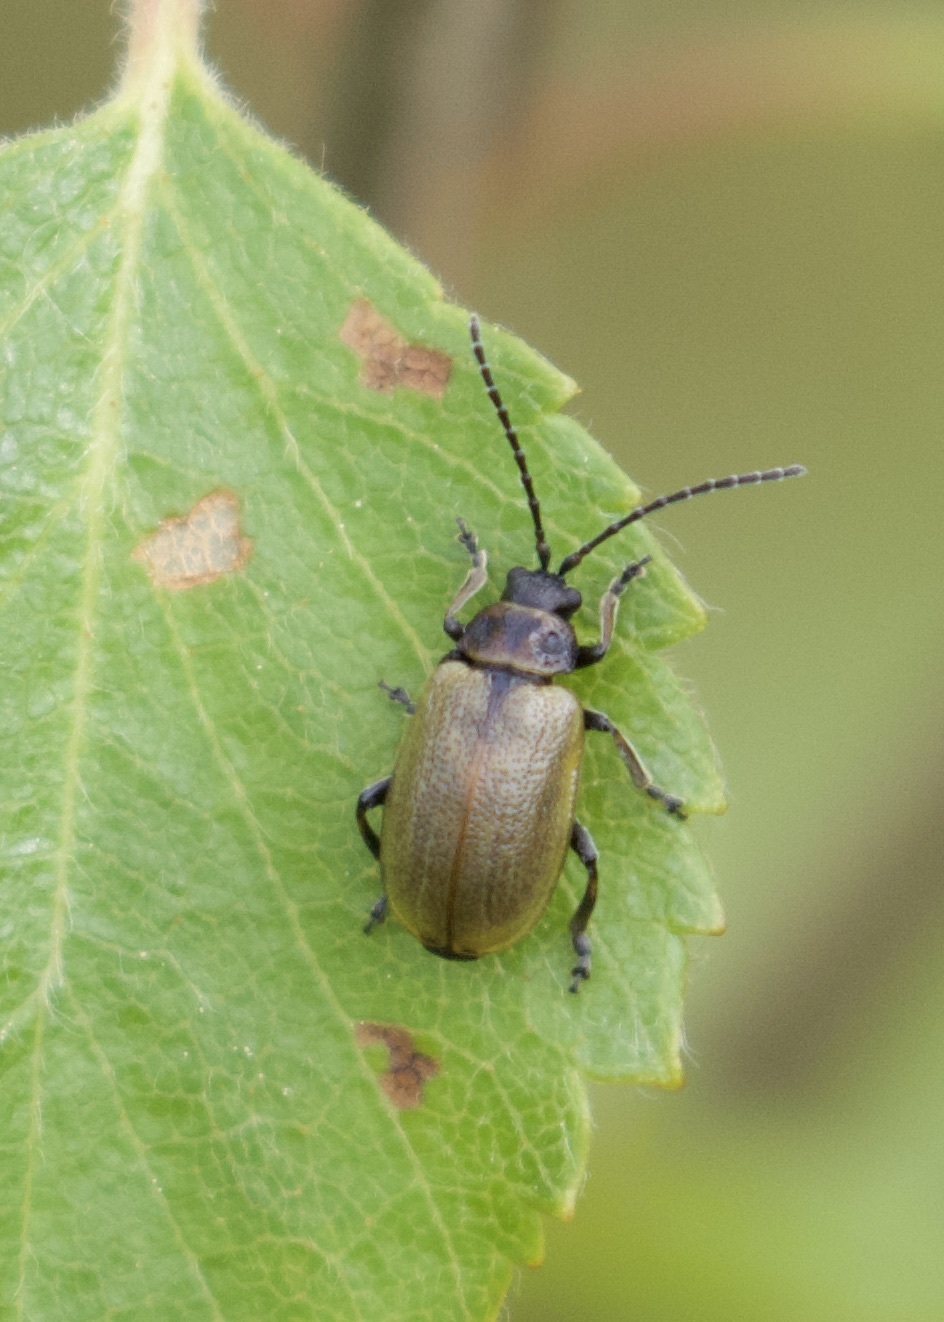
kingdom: Animalia
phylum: Arthropoda
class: Insecta
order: Coleoptera
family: Chrysomelidae
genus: Lochmaea
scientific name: Lochmaea caprea
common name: Willow leaf beetle
